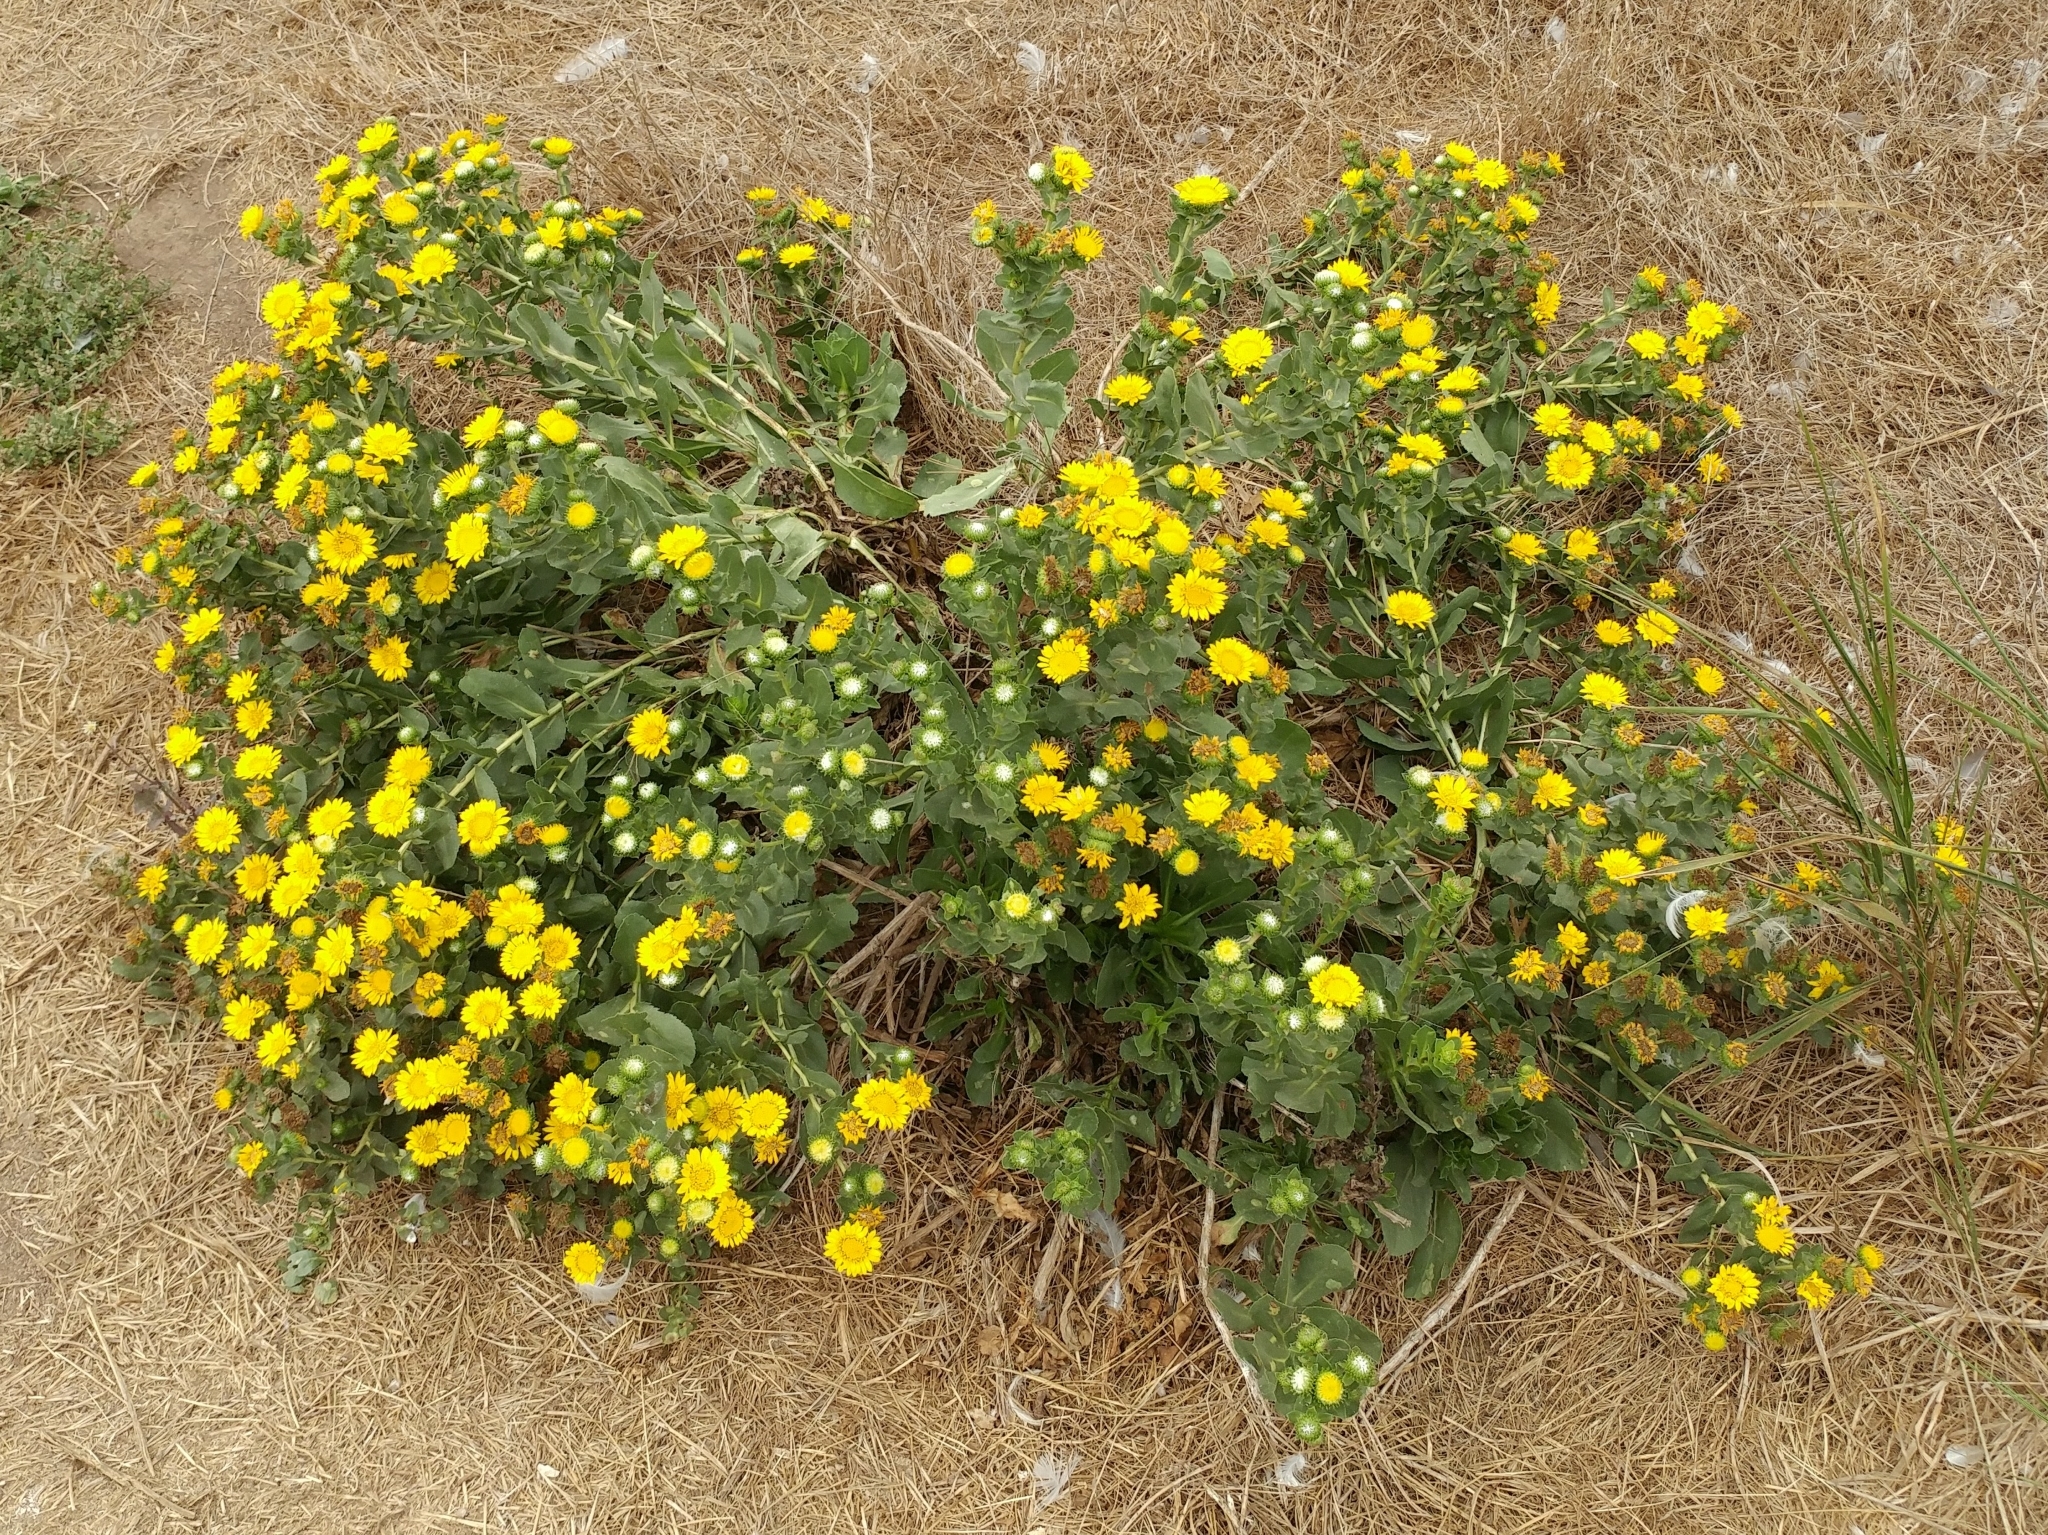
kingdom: Plantae
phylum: Tracheophyta
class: Magnoliopsida
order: Asterales
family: Asteraceae
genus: Grindelia
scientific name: Grindelia hirsutula
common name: Hairy gumweed
